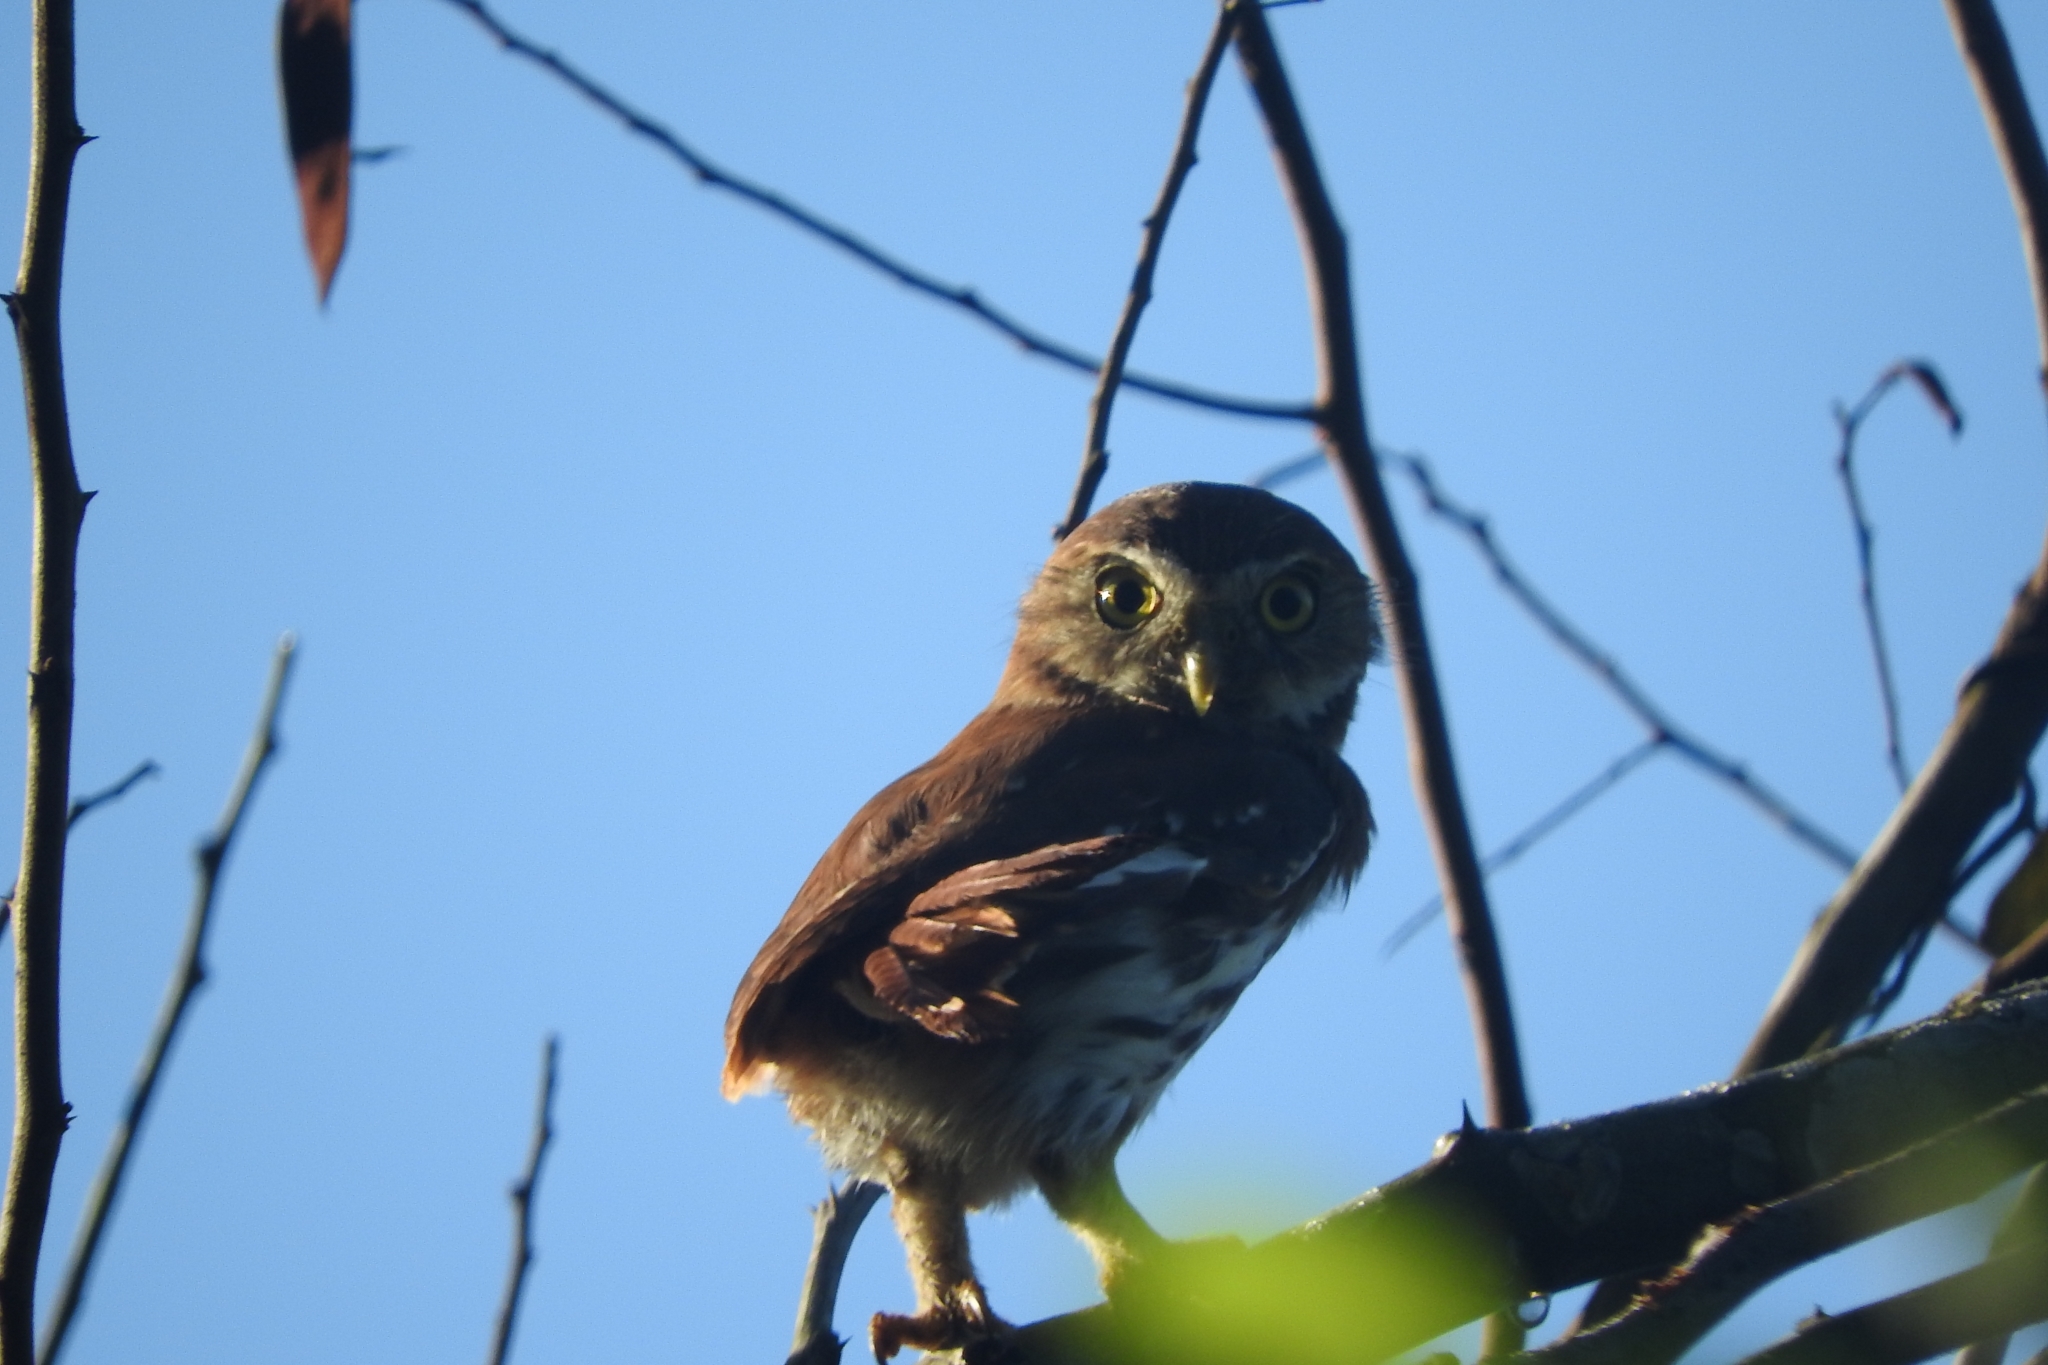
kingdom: Animalia
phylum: Chordata
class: Aves
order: Strigiformes
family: Strigidae
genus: Glaucidium
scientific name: Glaucidium brasilianum
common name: Ferruginous pygmy-owl
